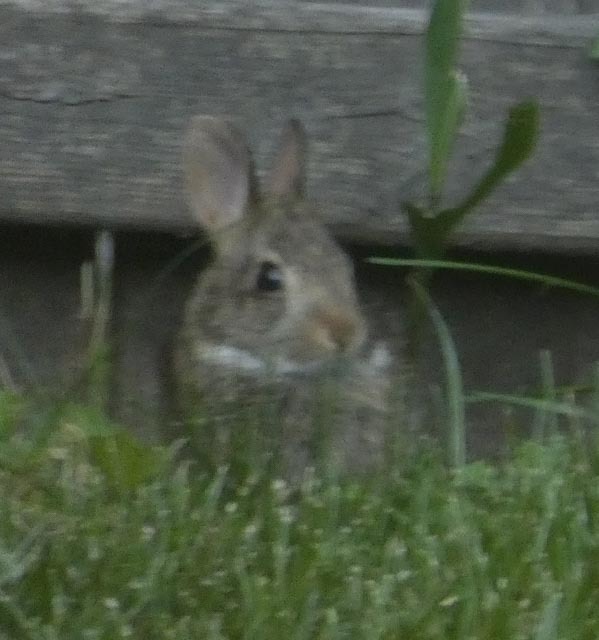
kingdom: Animalia
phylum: Chordata
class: Mammalia
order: Lagomorpha
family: Leporidae
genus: Sylvilagus
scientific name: Sylvilagus floridanus
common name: Eastern cottontail
